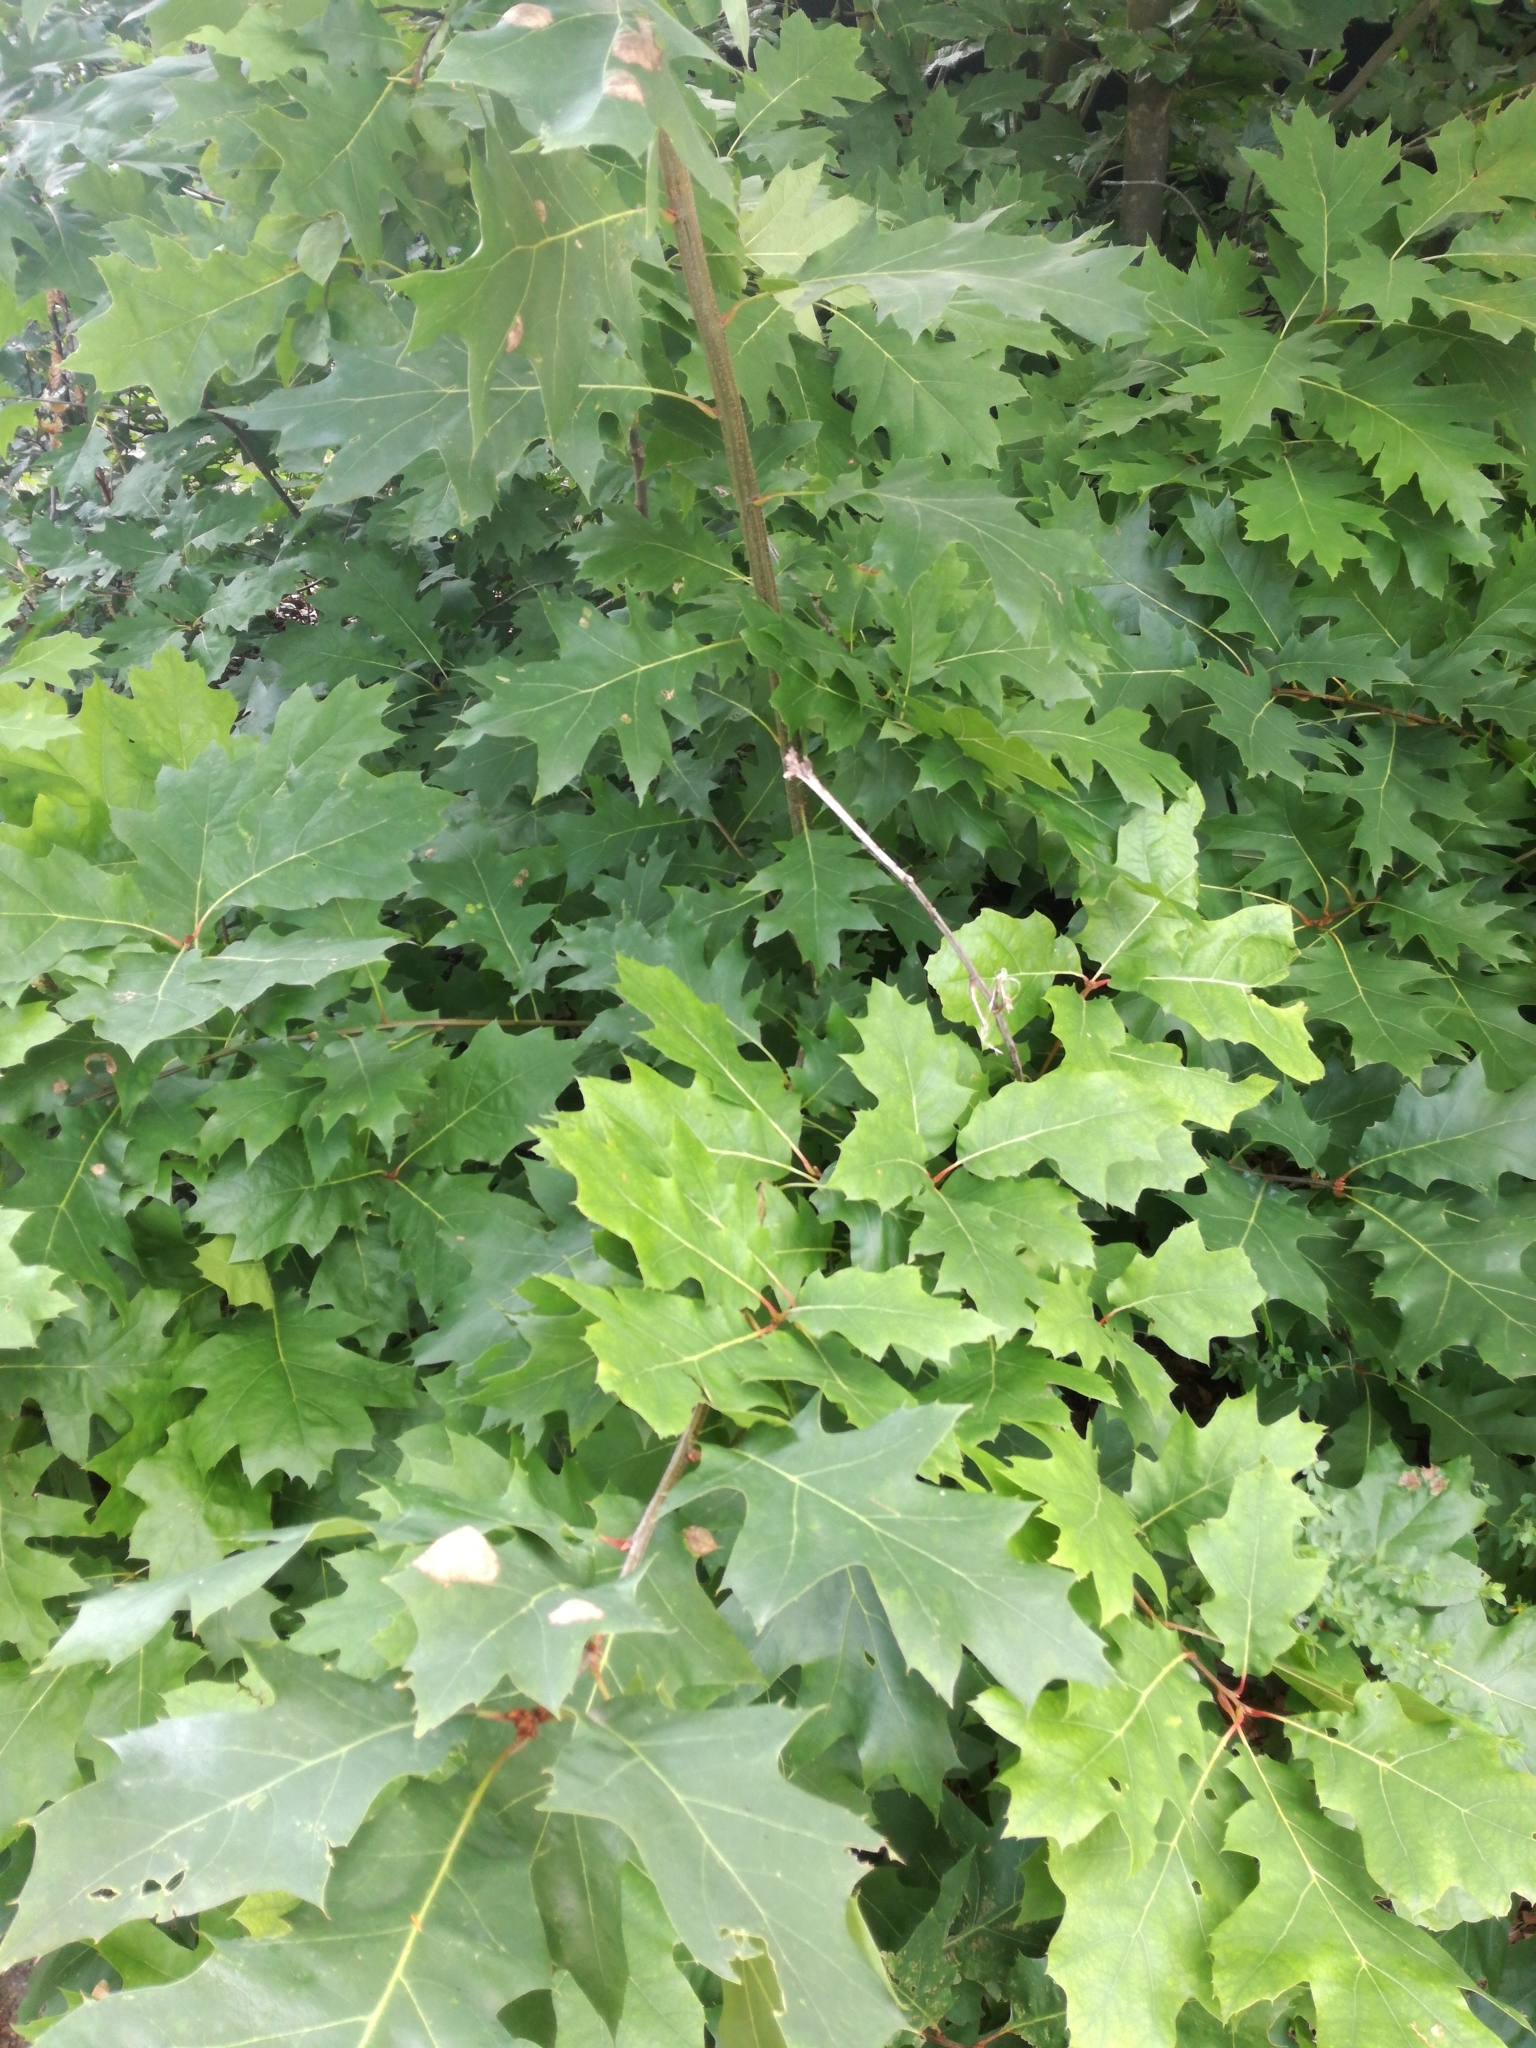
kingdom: Plantae
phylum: Tracheophyta
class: Magnoliopsida
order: Fagales
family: Fagaceae
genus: Quercus
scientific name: Quercus rubra
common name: Red oak
